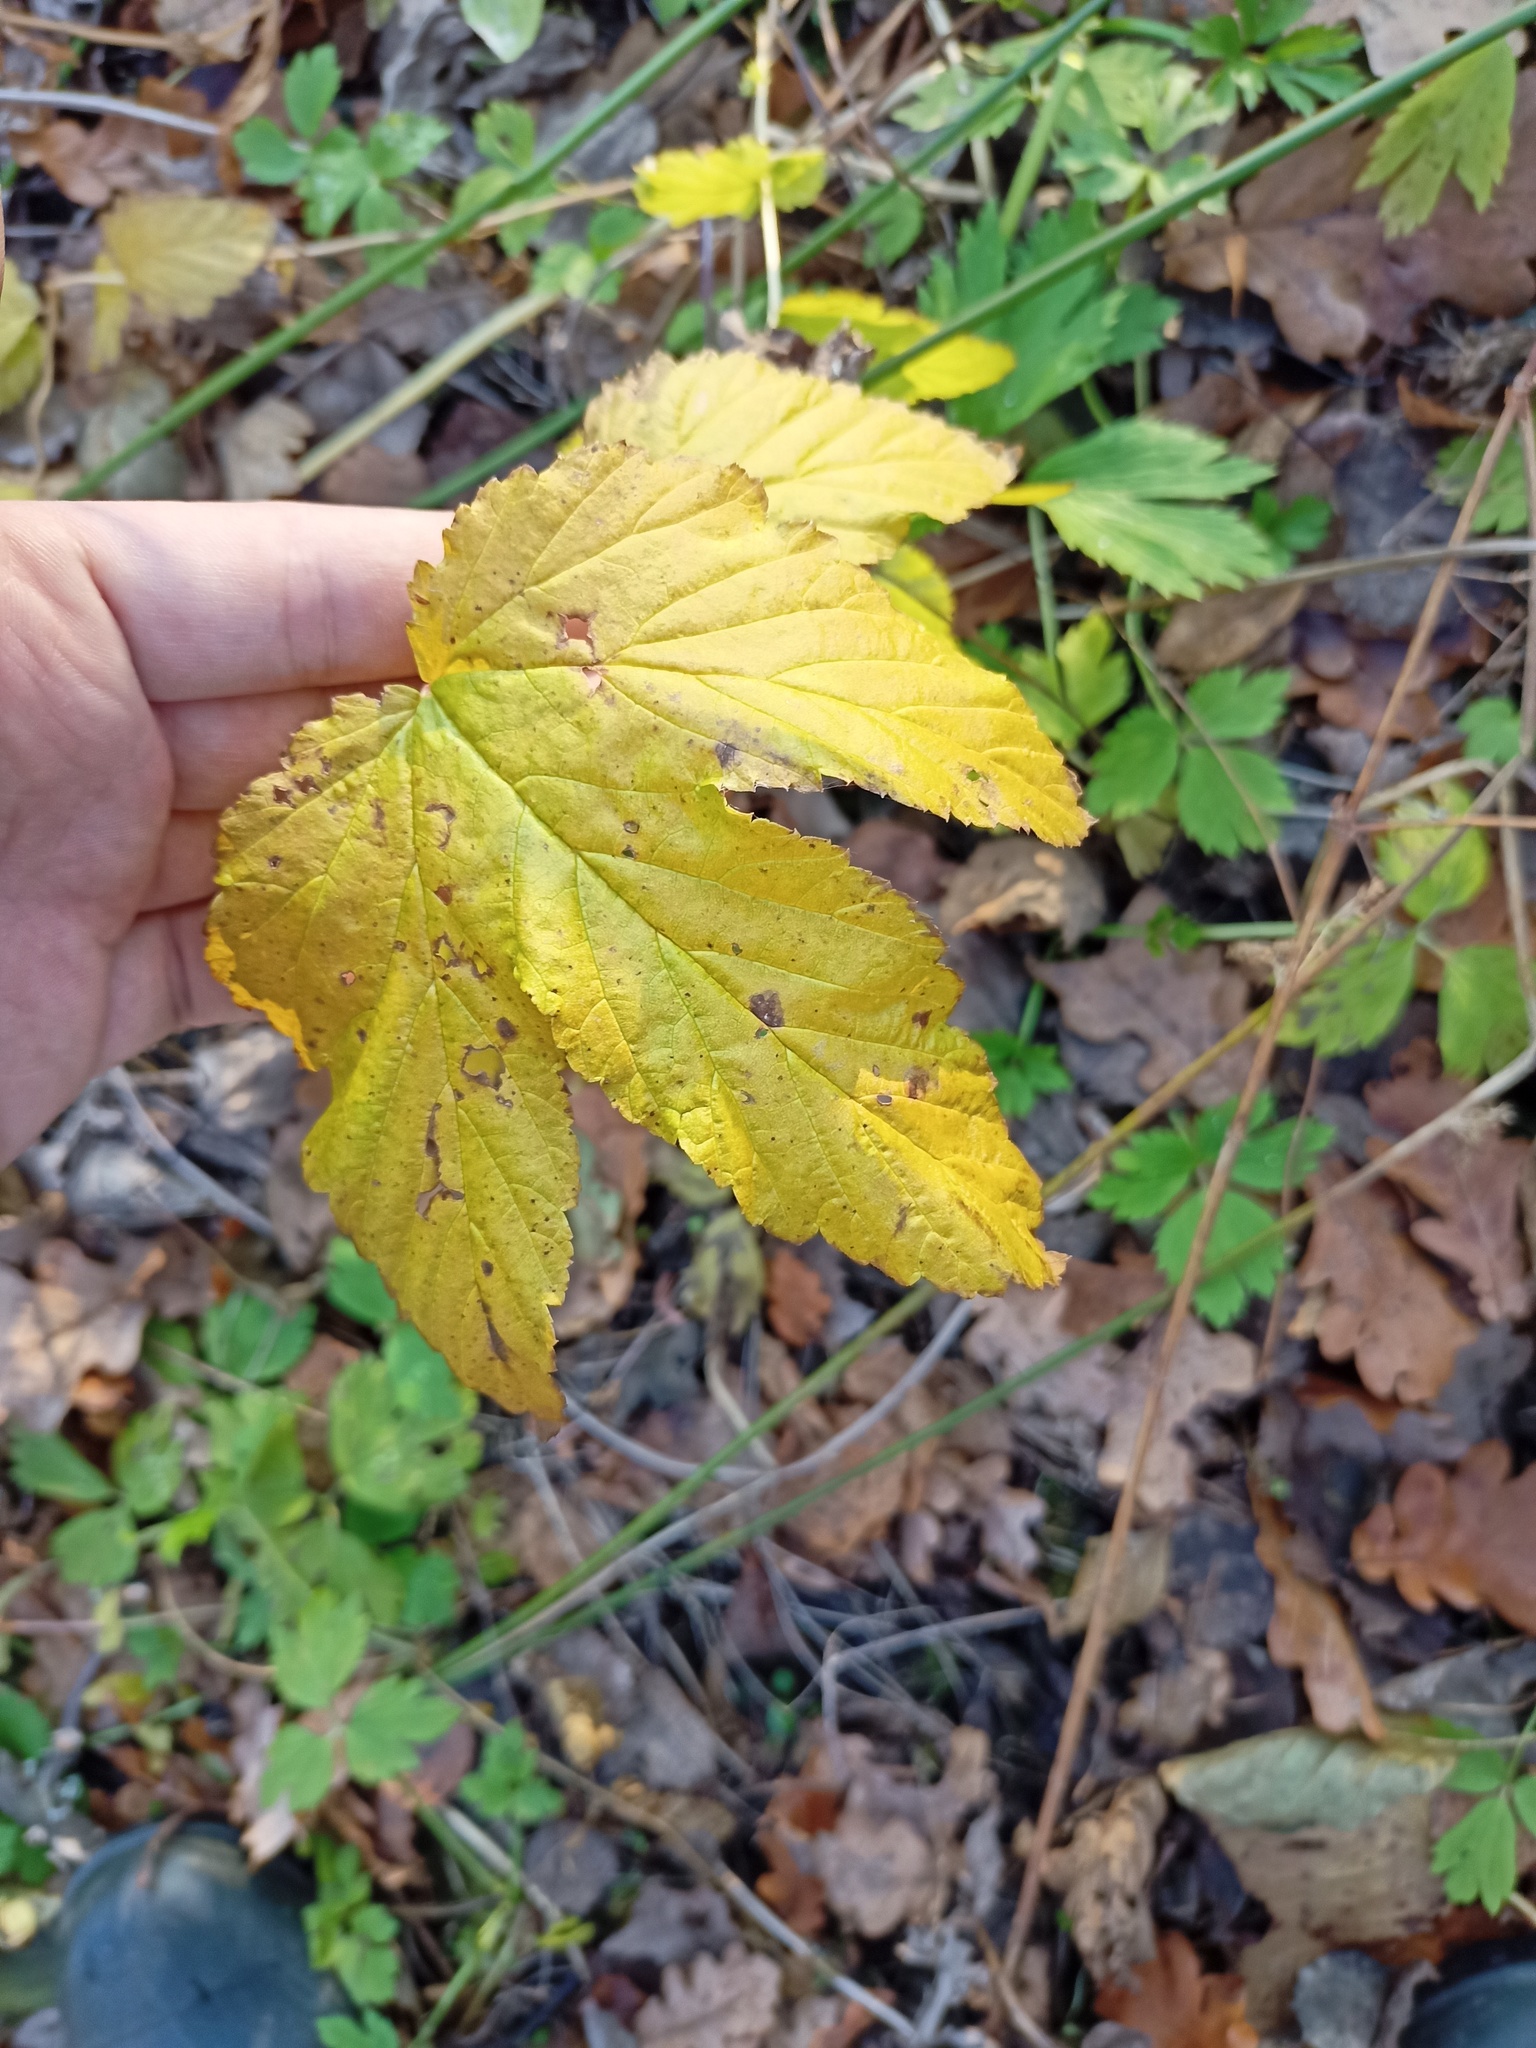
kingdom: Plantae
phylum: Tracheophyta
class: Magnoliopsida
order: Rosales
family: Rosaceae
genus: Filipendula
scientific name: Filipendula ulmaria
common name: Meadowsweet
